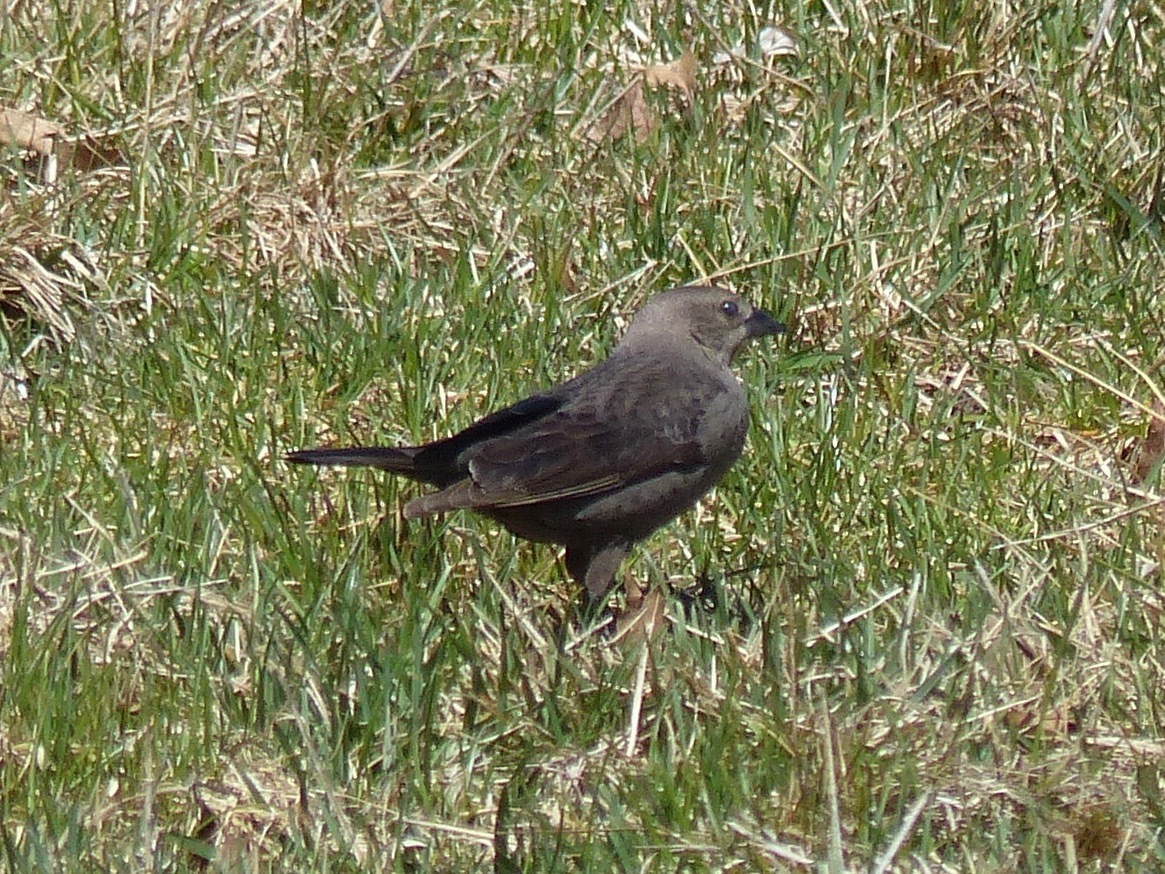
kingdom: Animalia
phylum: Chordata
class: Aves
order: Passeriformes
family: Icteridae
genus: Molothrus
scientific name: Molothrus ater
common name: Brown-headed cowbird
